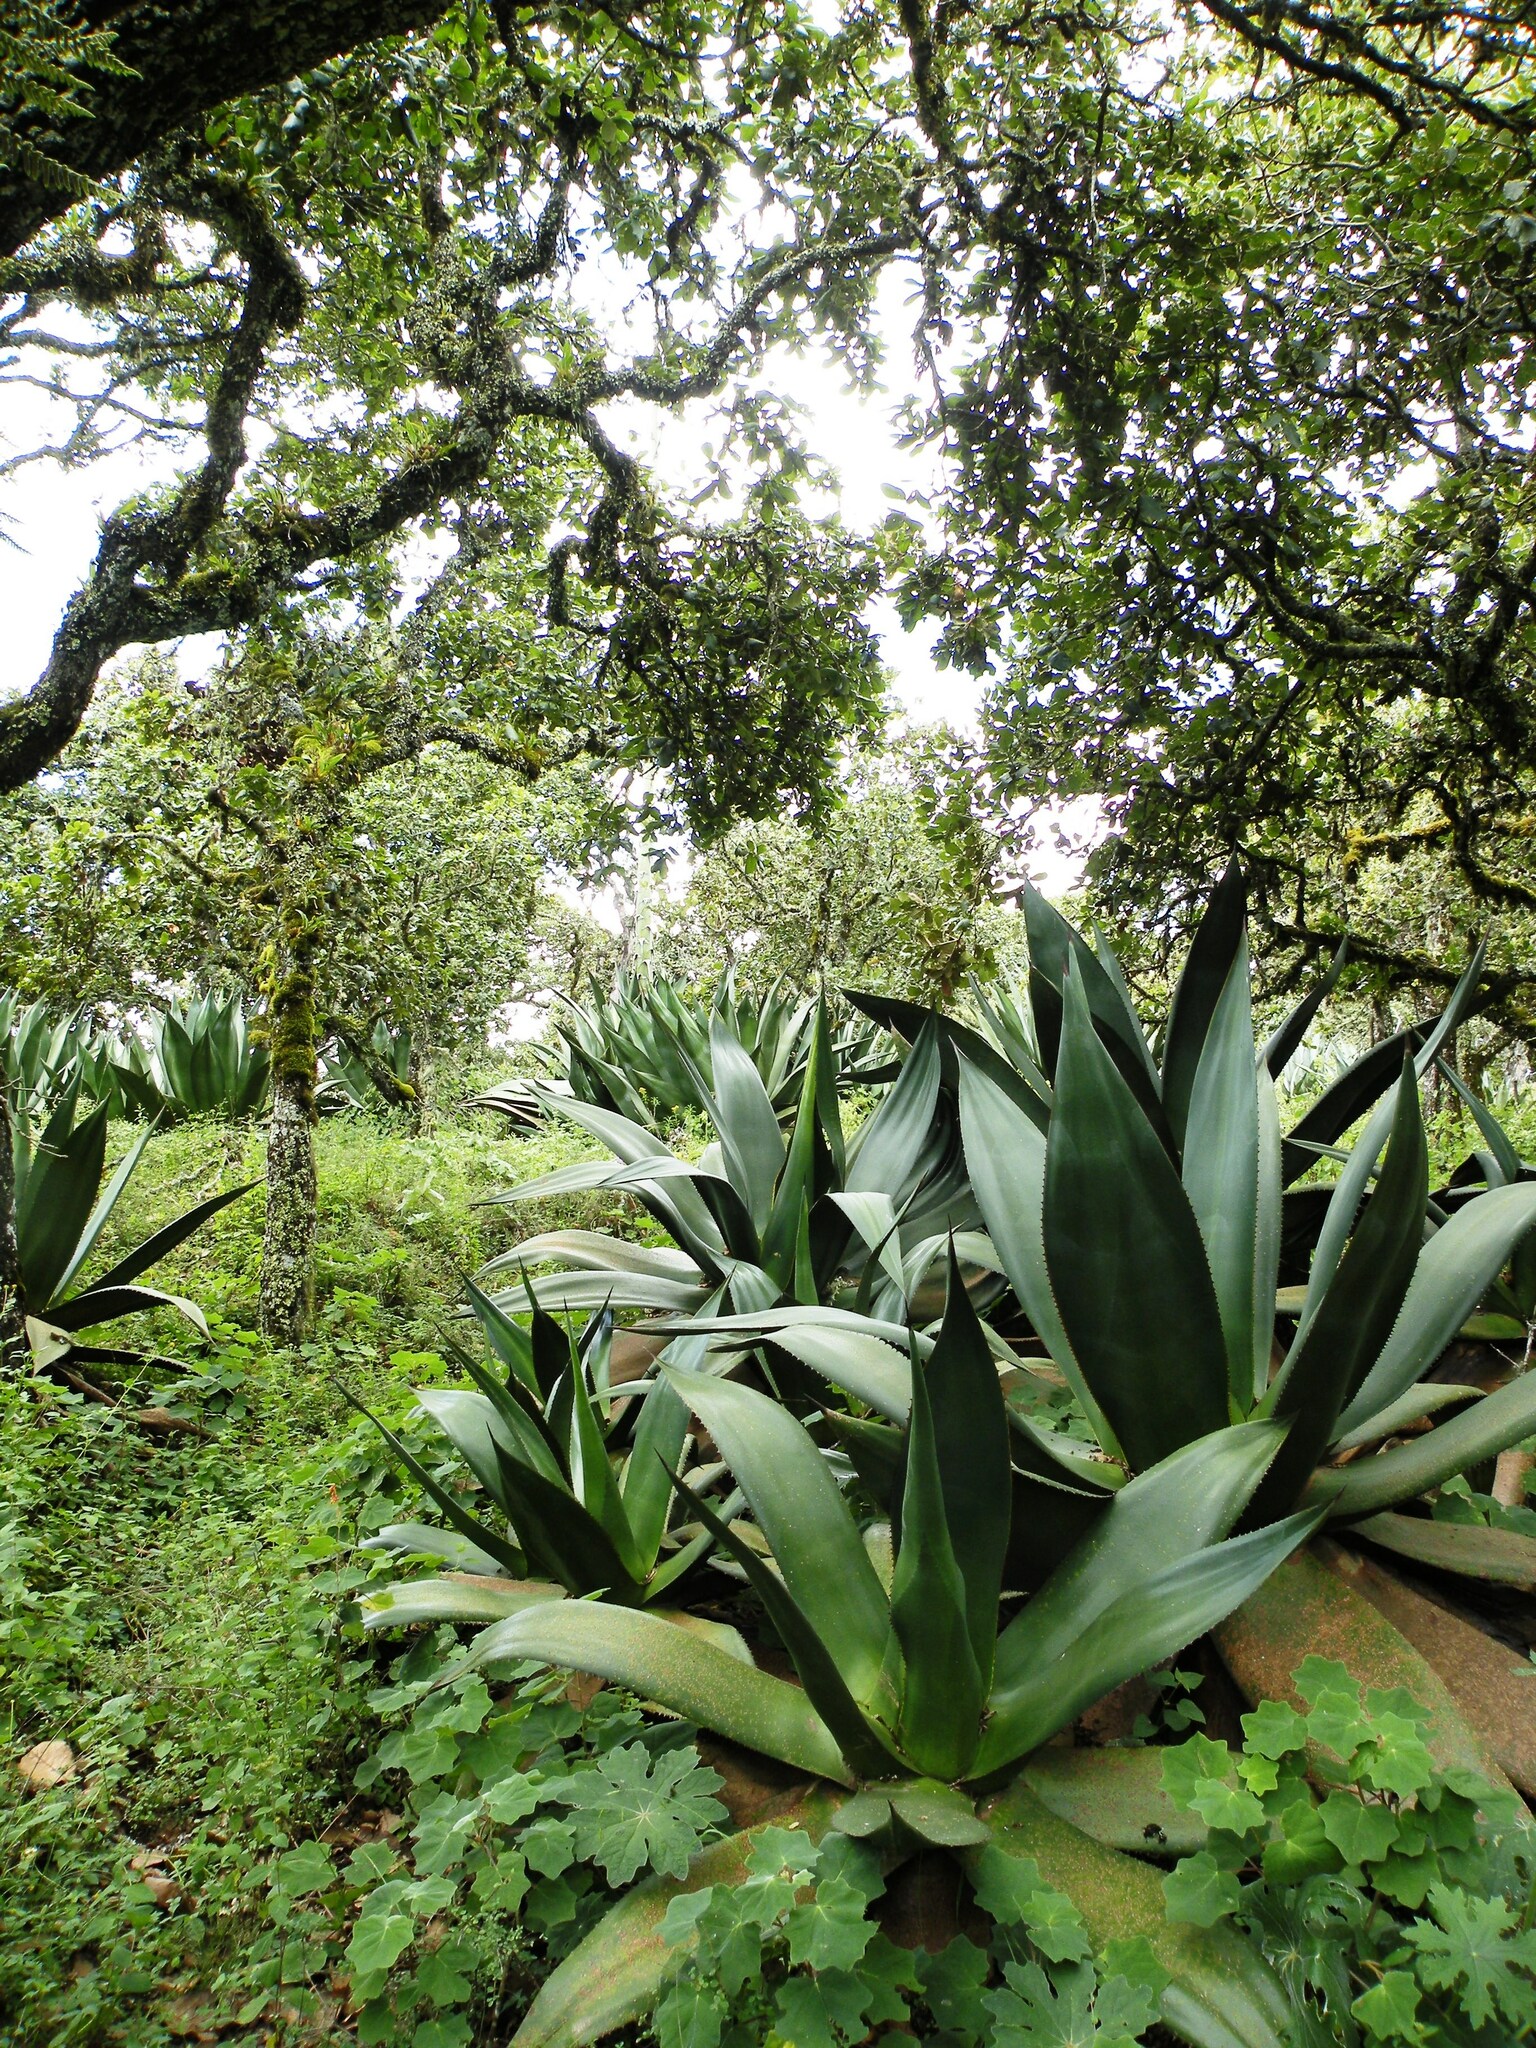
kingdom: Plantae
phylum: Tracheophyta
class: Liliopsida
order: Asparagales
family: Asparagaceae
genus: Agave
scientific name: Agave atrovirens
